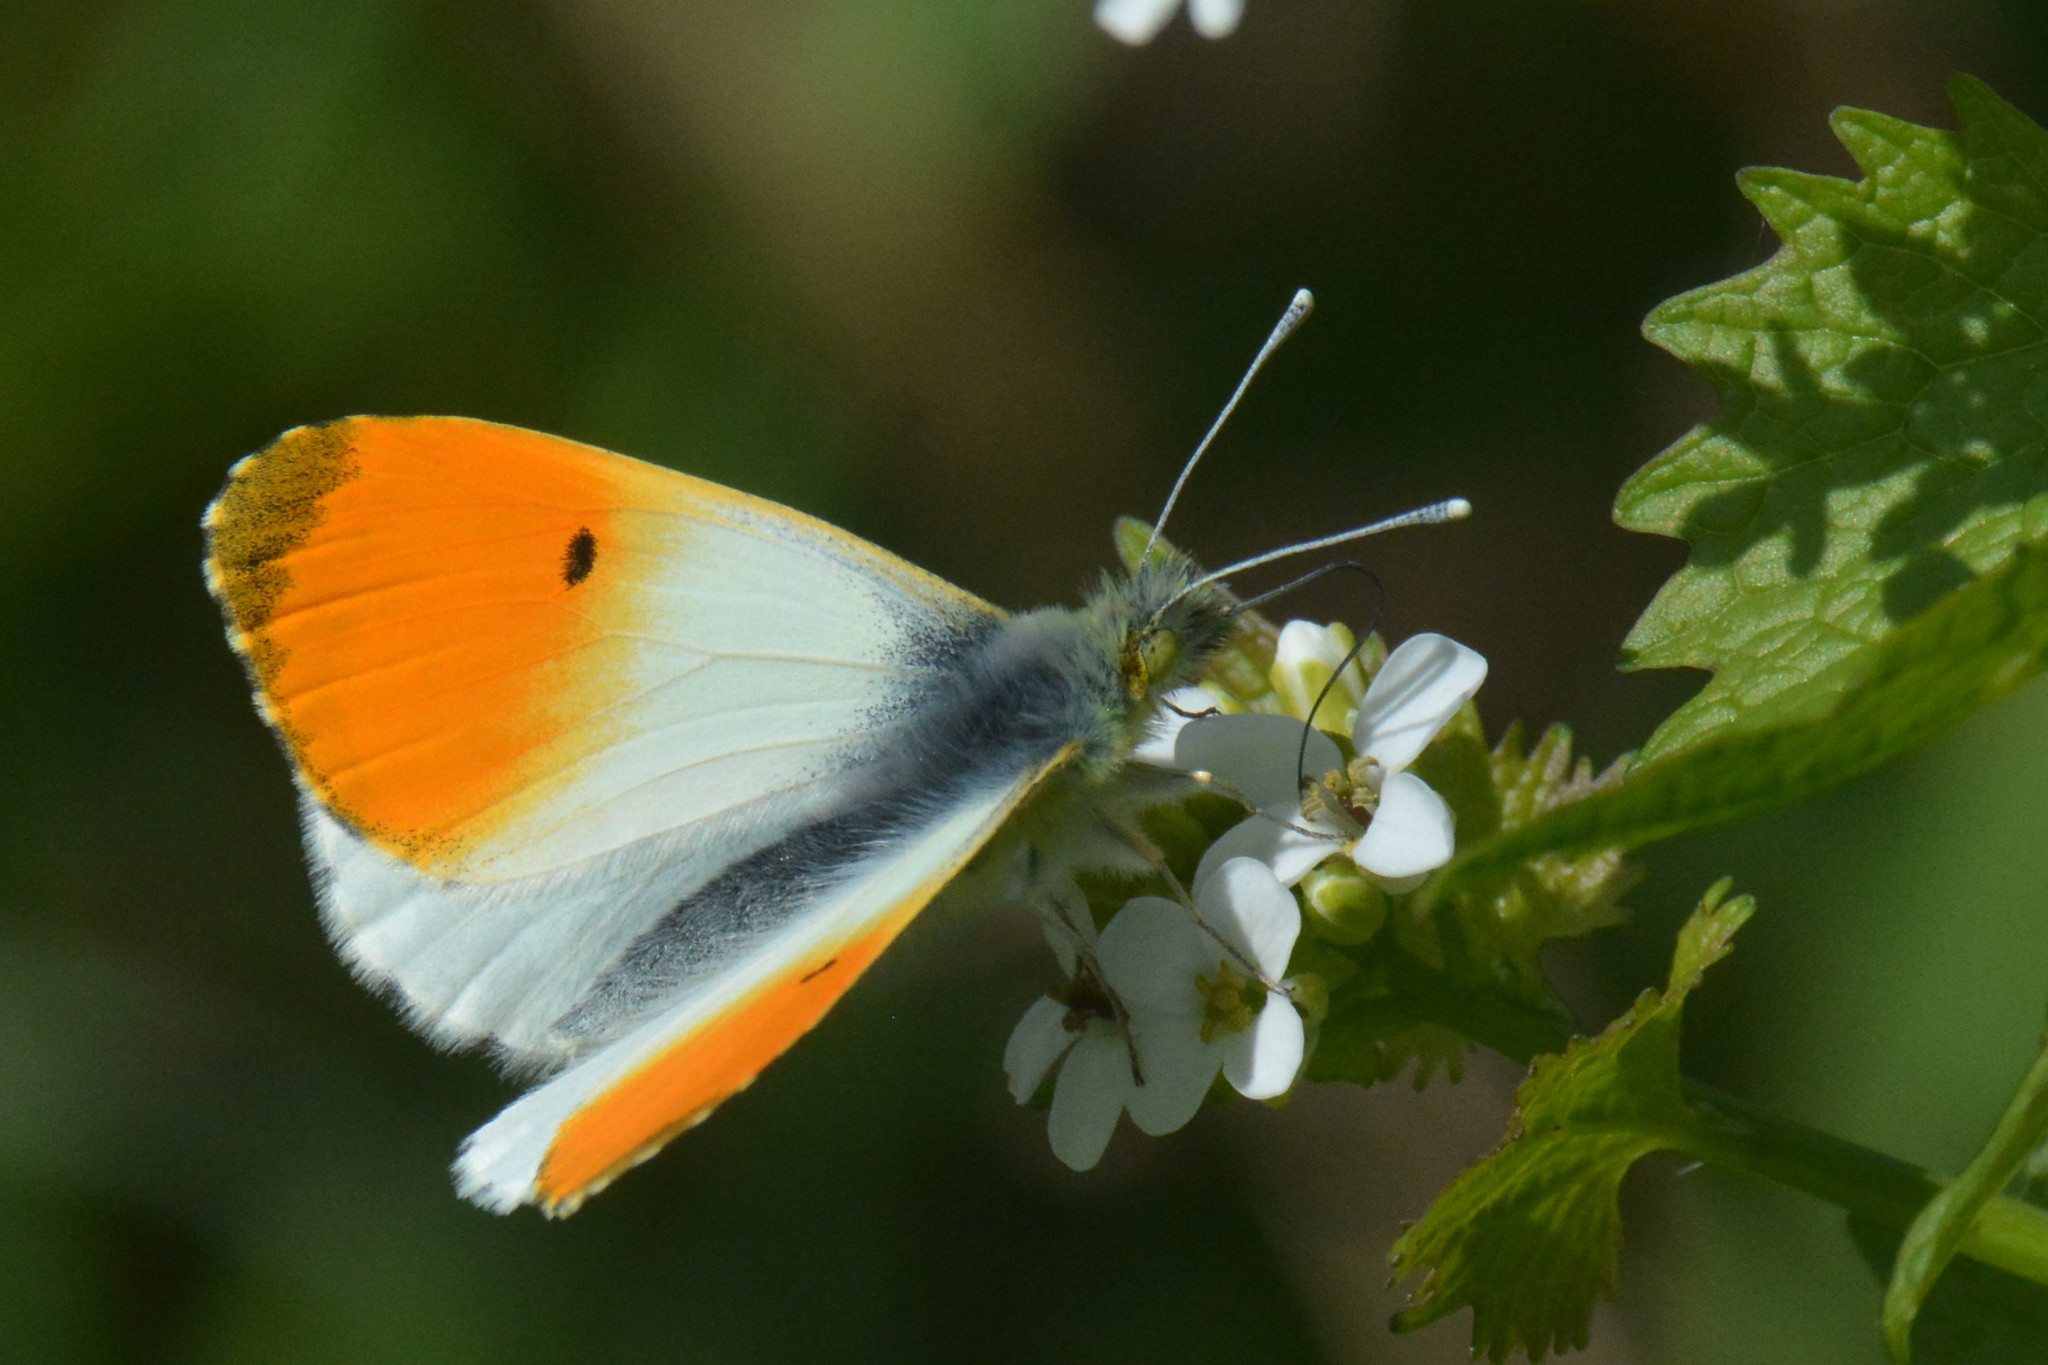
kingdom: Animalia
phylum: Arthropoda
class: Insecta
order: Lepidoptera
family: Pieridae
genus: Anthocharis
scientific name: Anthocharis cardamines
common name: Orange-tip
